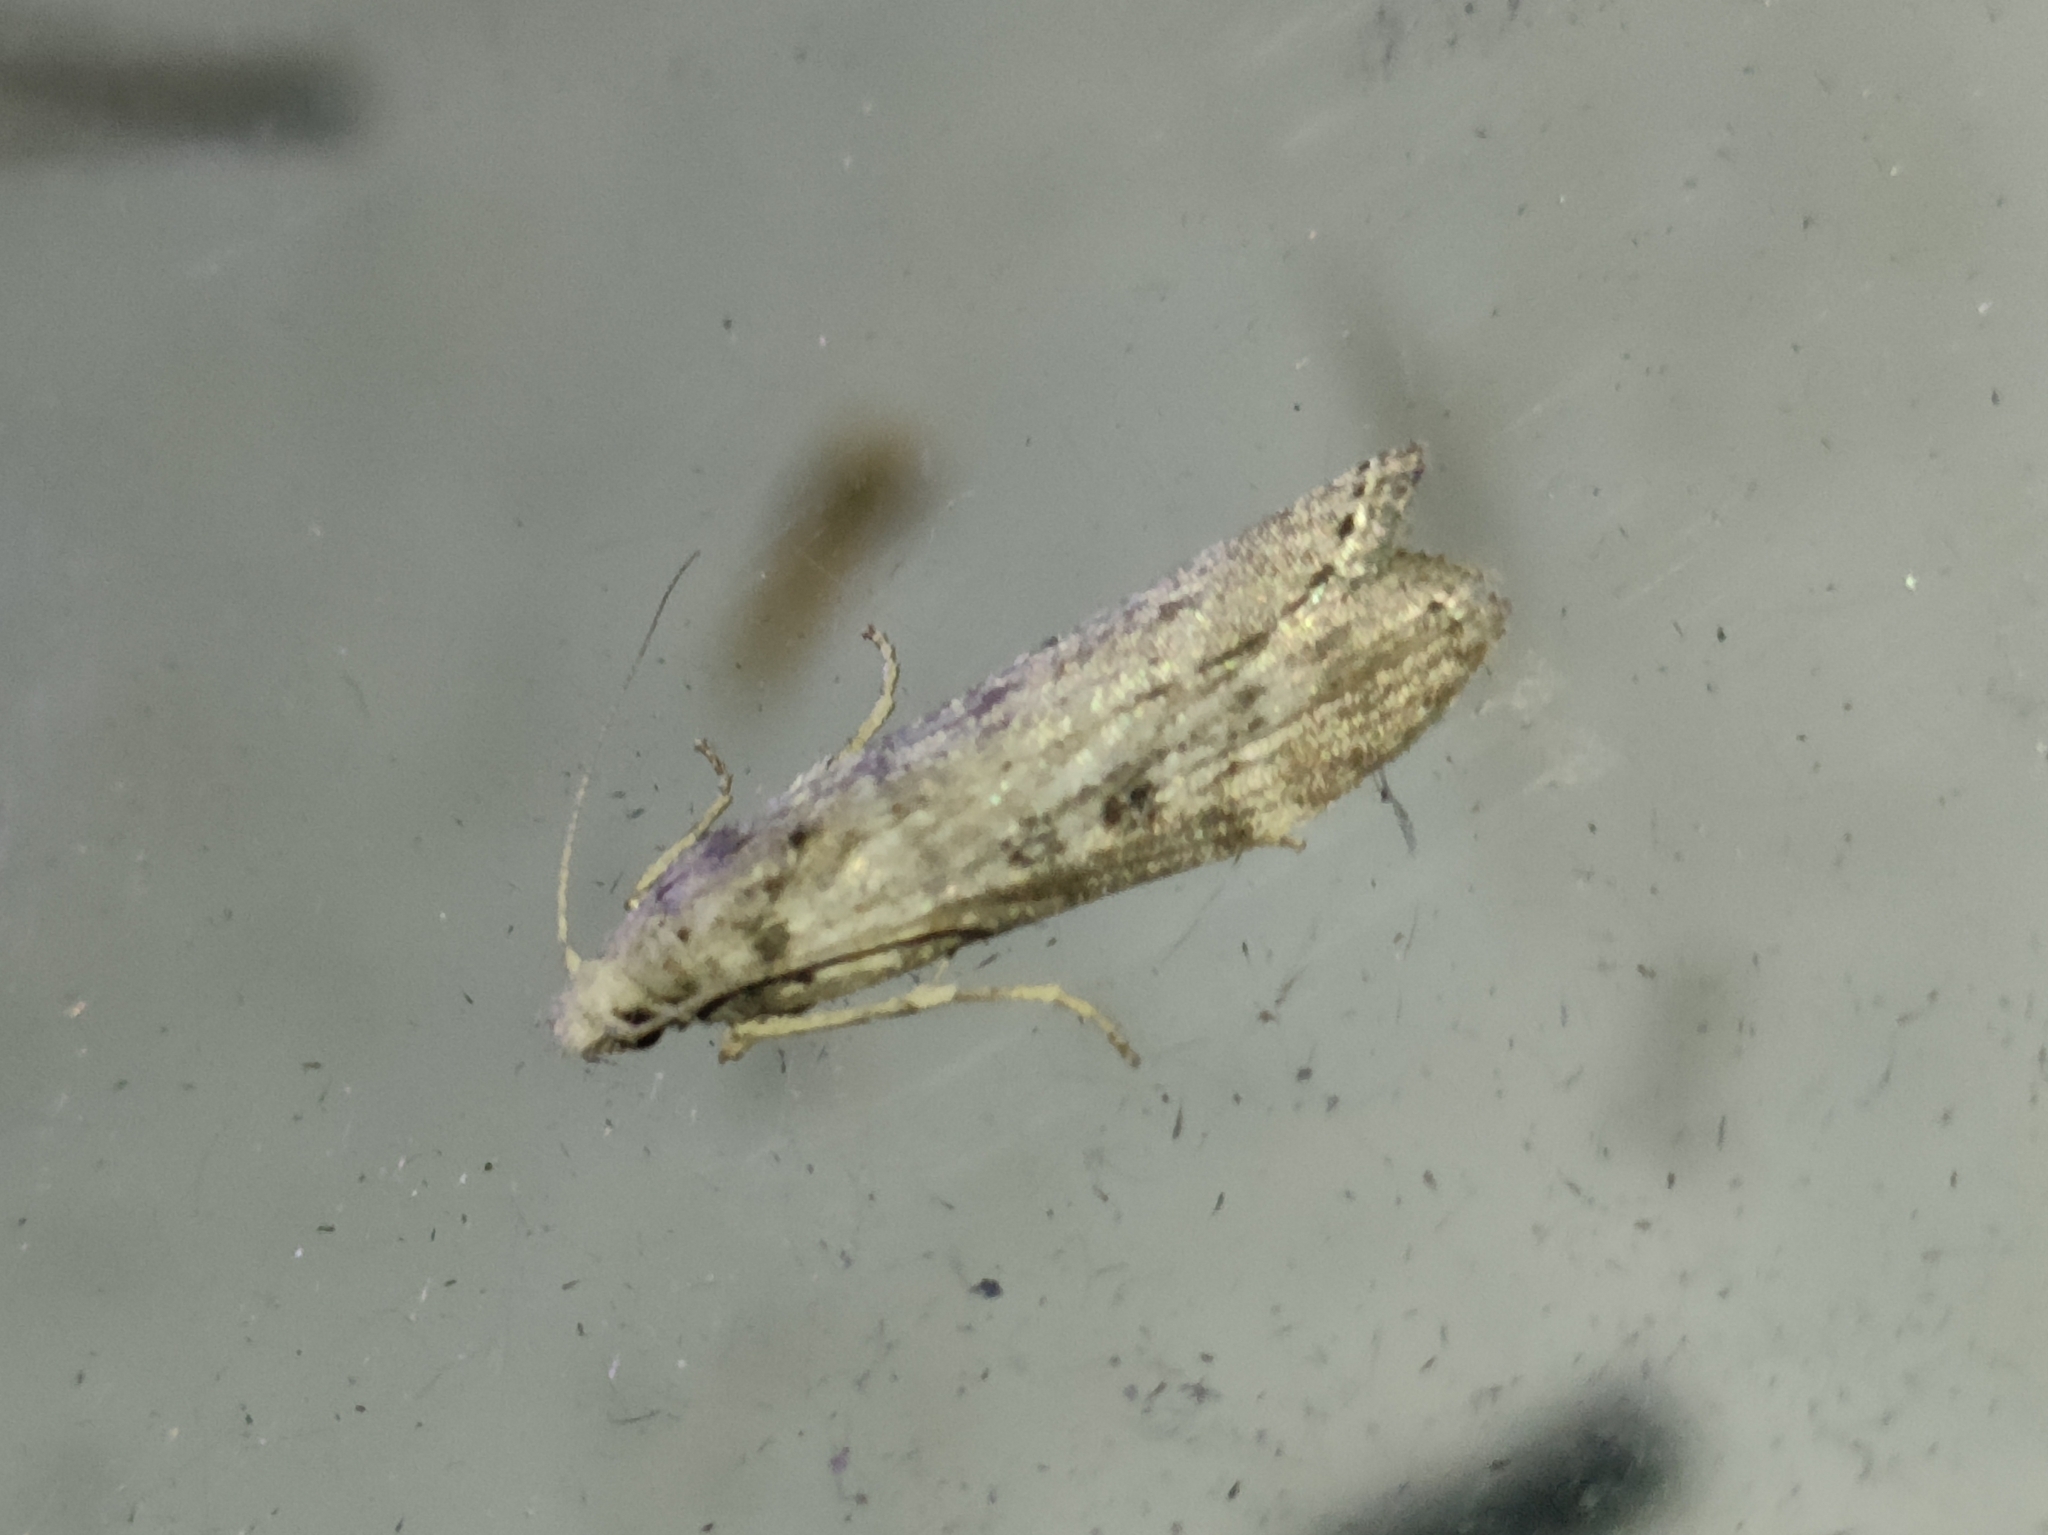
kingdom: Animalia
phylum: Arthropoda
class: Insecta
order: Lepidoptera
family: Pyralidae
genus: Lamoria
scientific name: Lamoria anella
